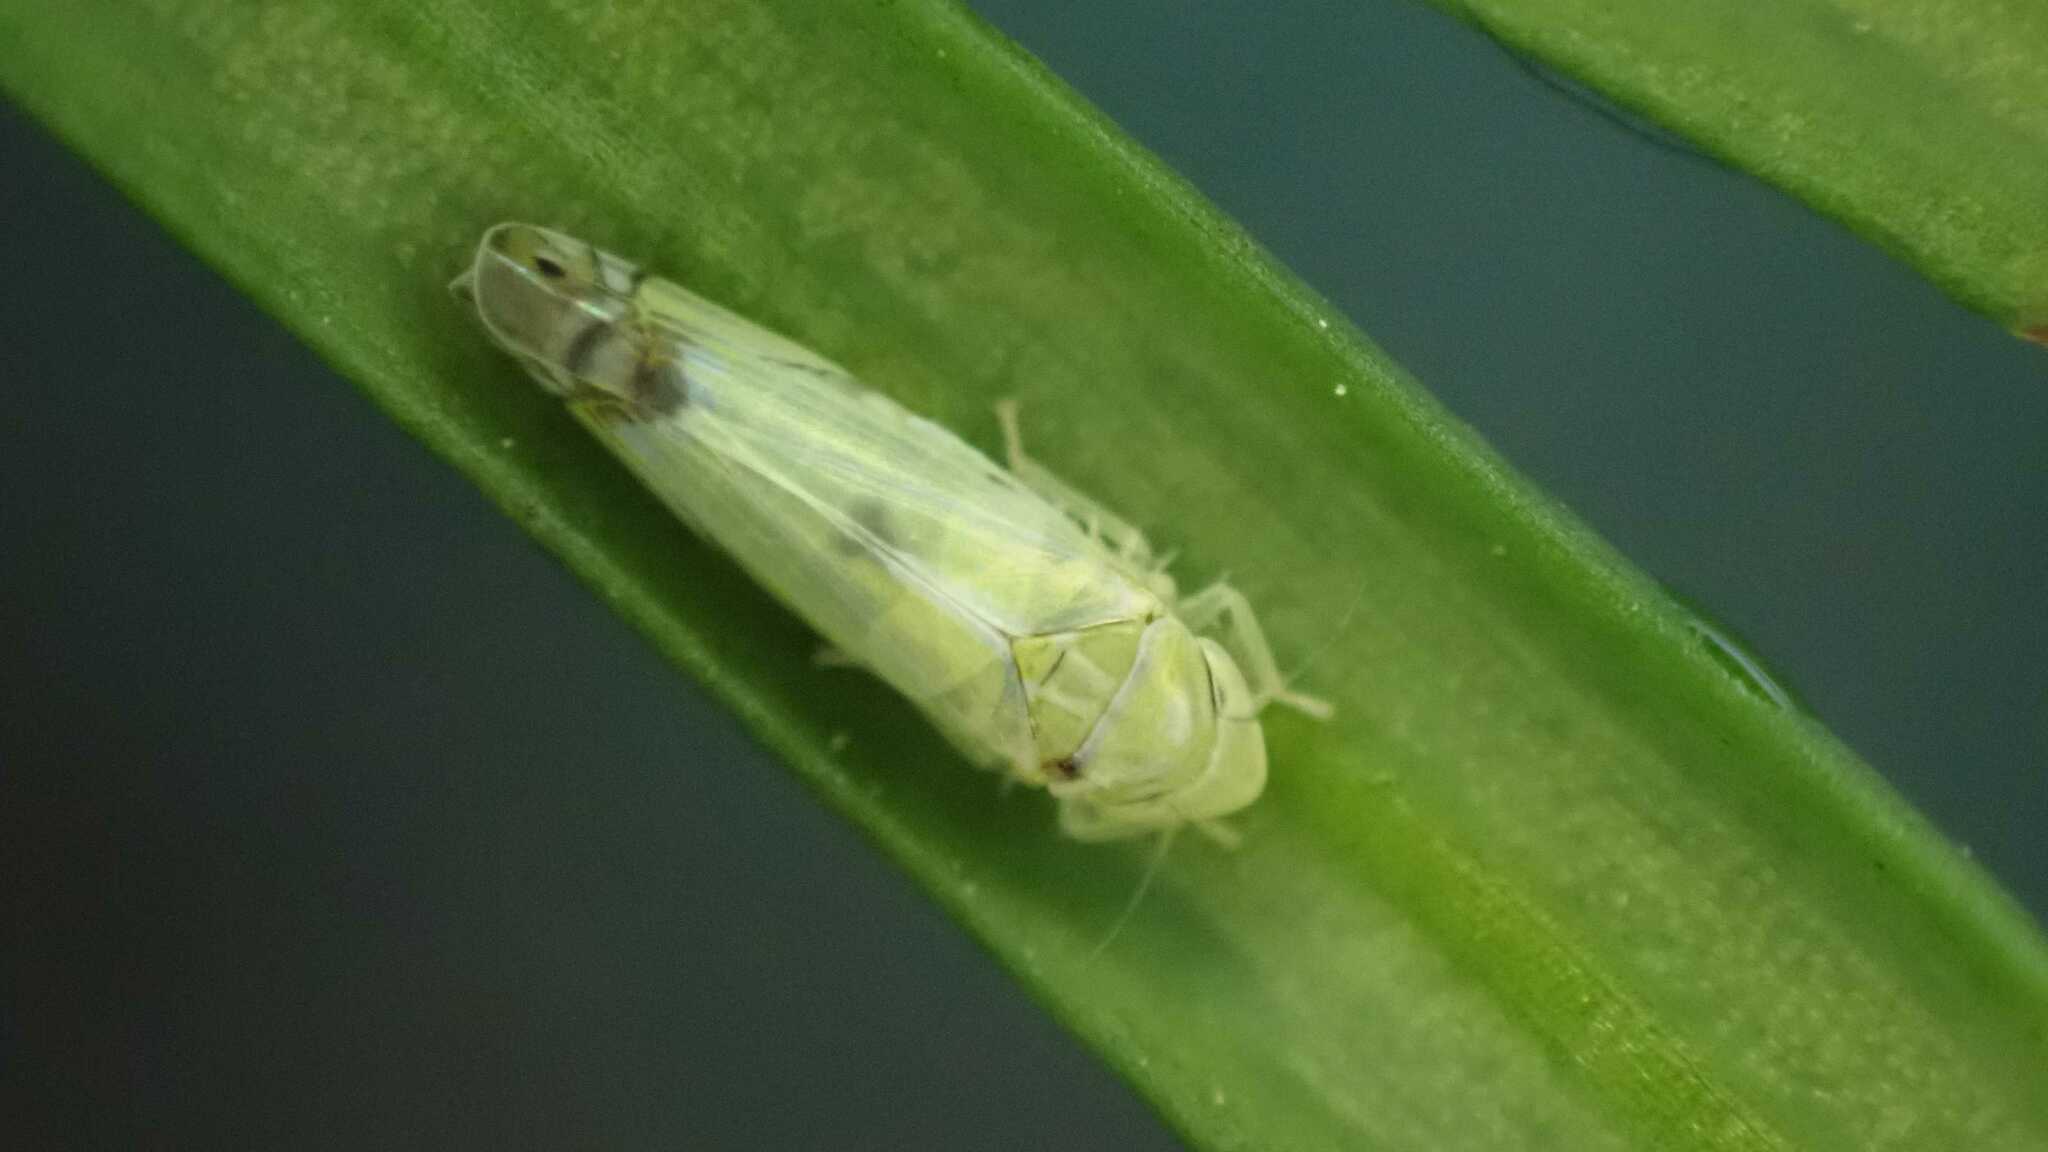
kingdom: Animalia
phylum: Arthropoda
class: Insecta
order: Hemiptera
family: Cicadellidae
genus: Zyginella
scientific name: Zyginella pulchra
